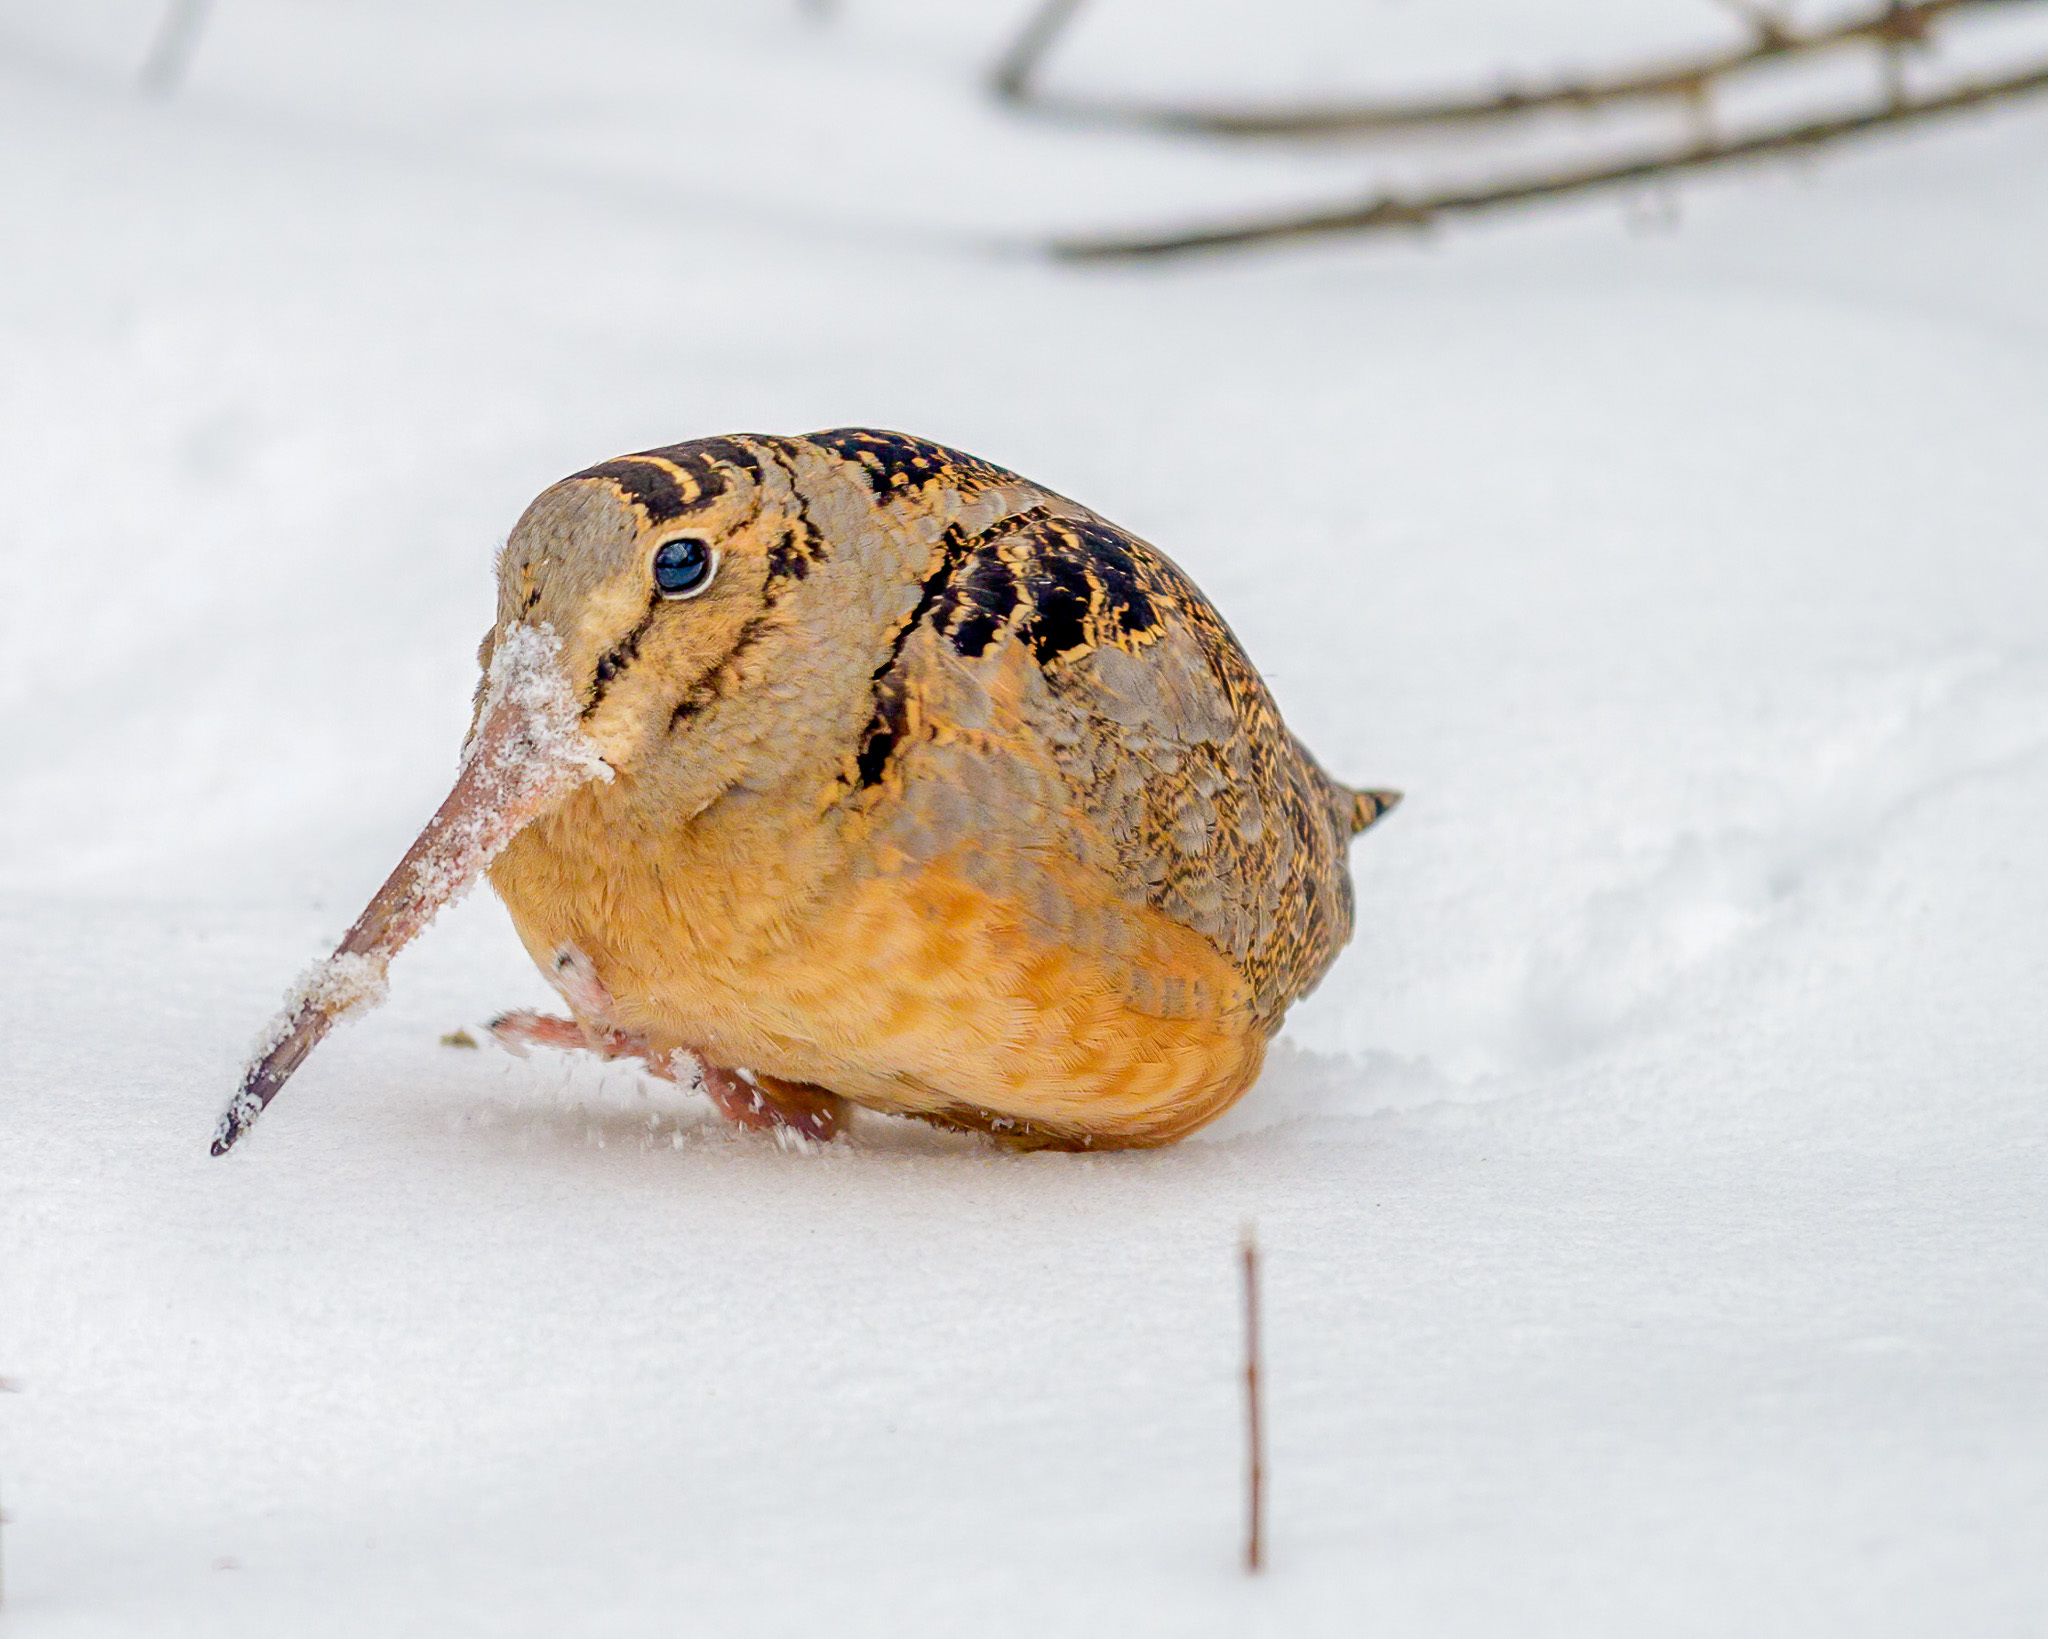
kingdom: Animalia
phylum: Chordata
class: Aves
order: Charadriiformes
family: Scolopacidae
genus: Scolopax
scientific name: Scolopax minor
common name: American woodcock
